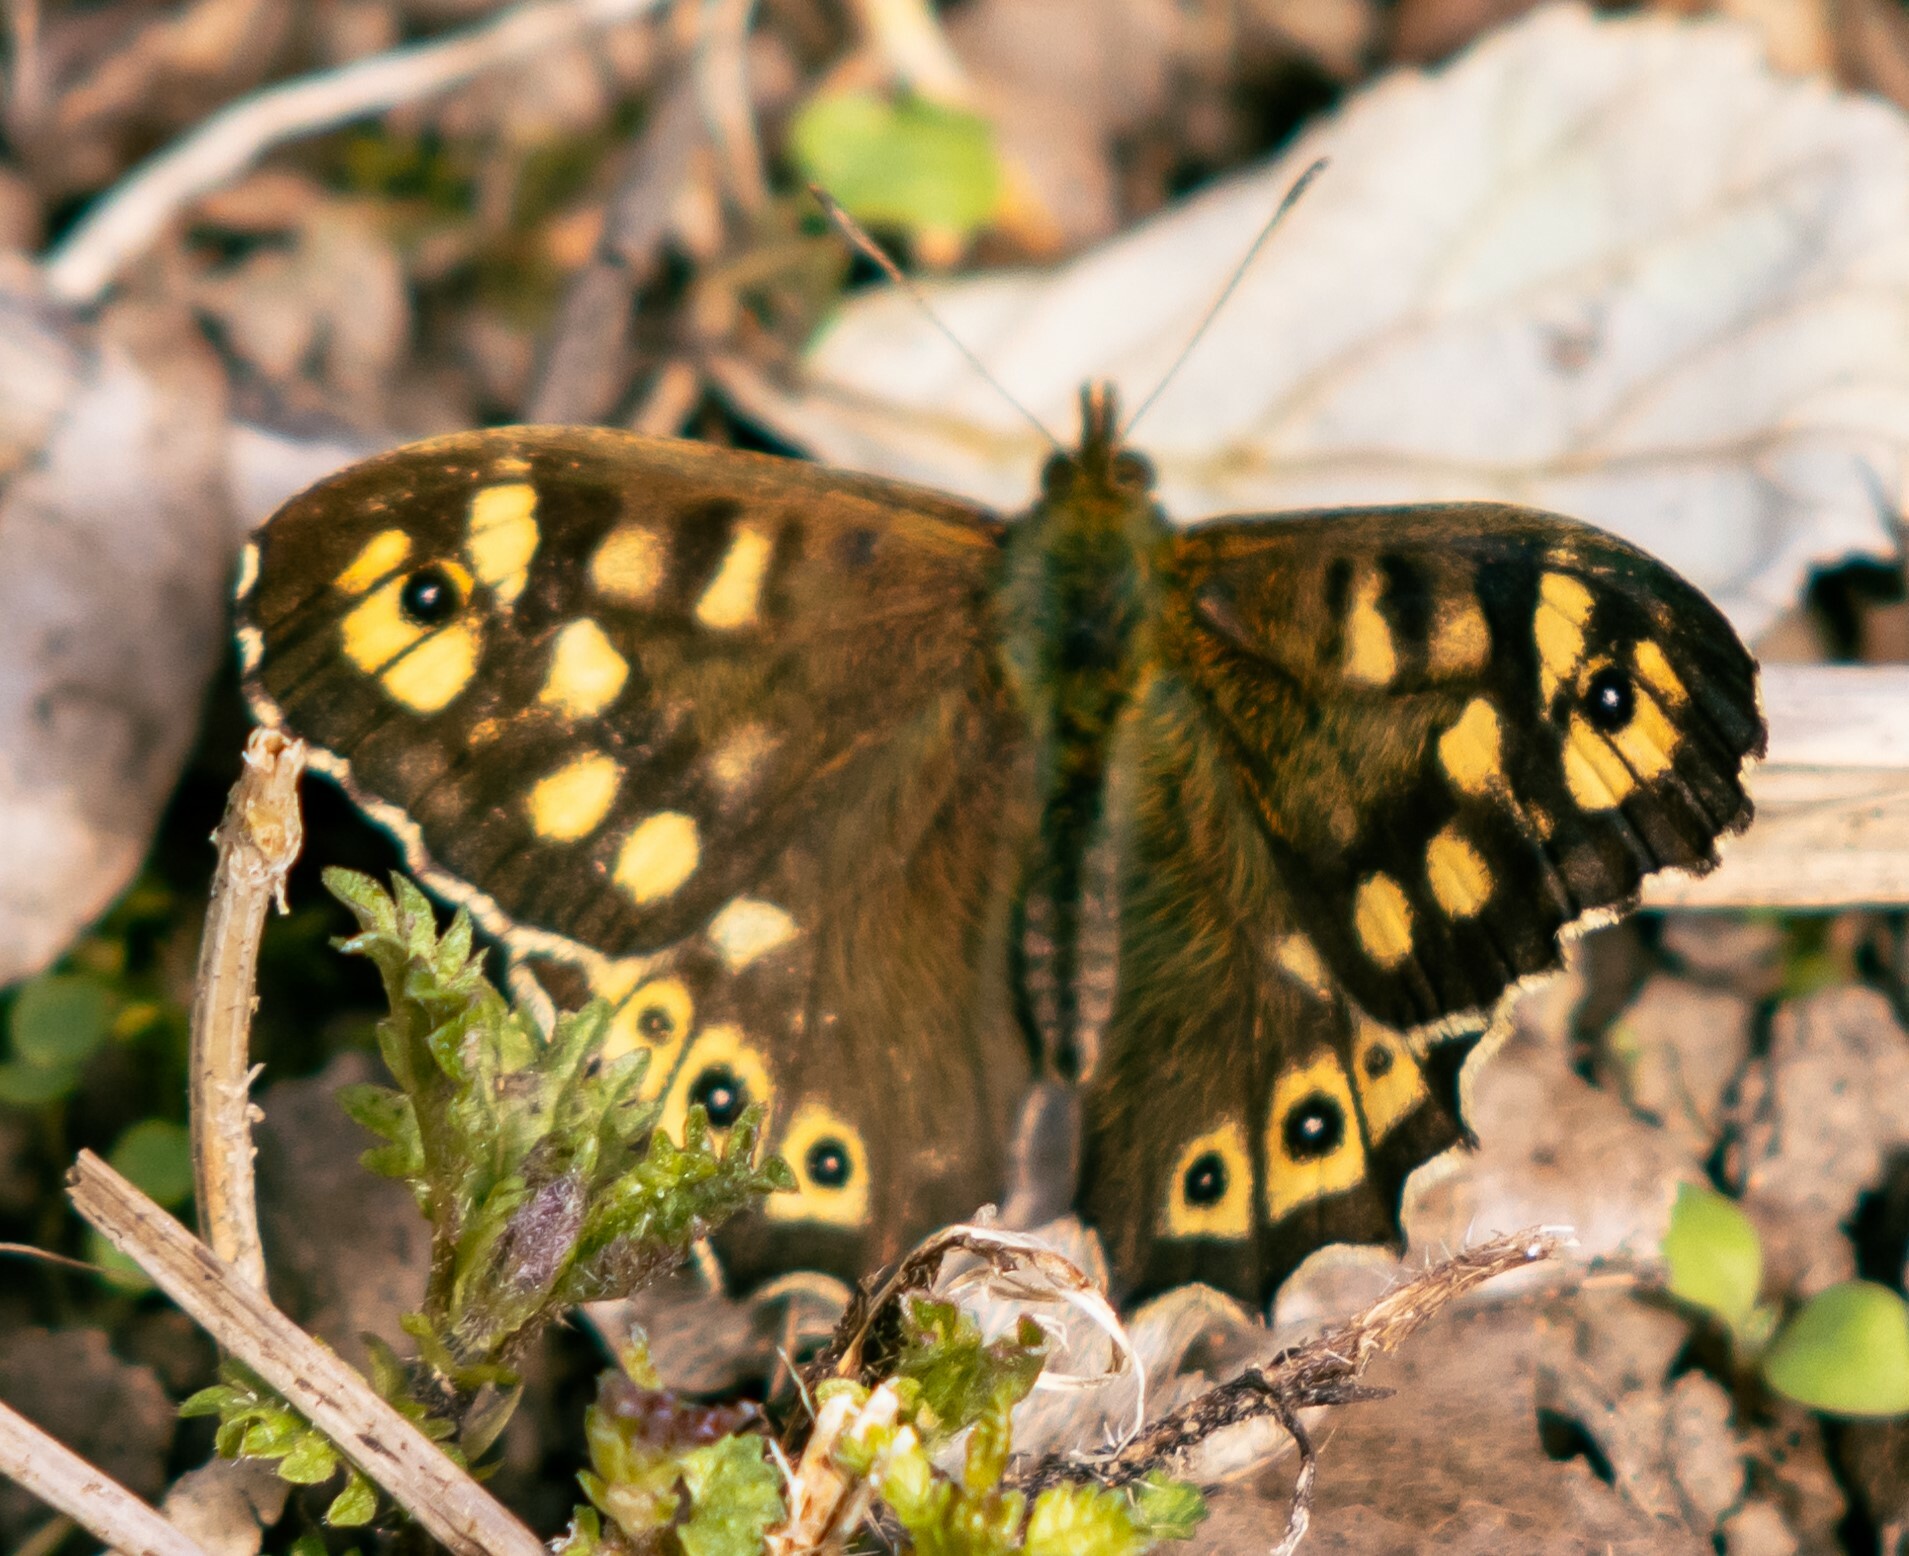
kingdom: Animalia
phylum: Arthropoda
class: Insecta
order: Lepidoptera
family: Nymphalidae
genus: Pararge
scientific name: Pararge aegeria
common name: Speckled wood
